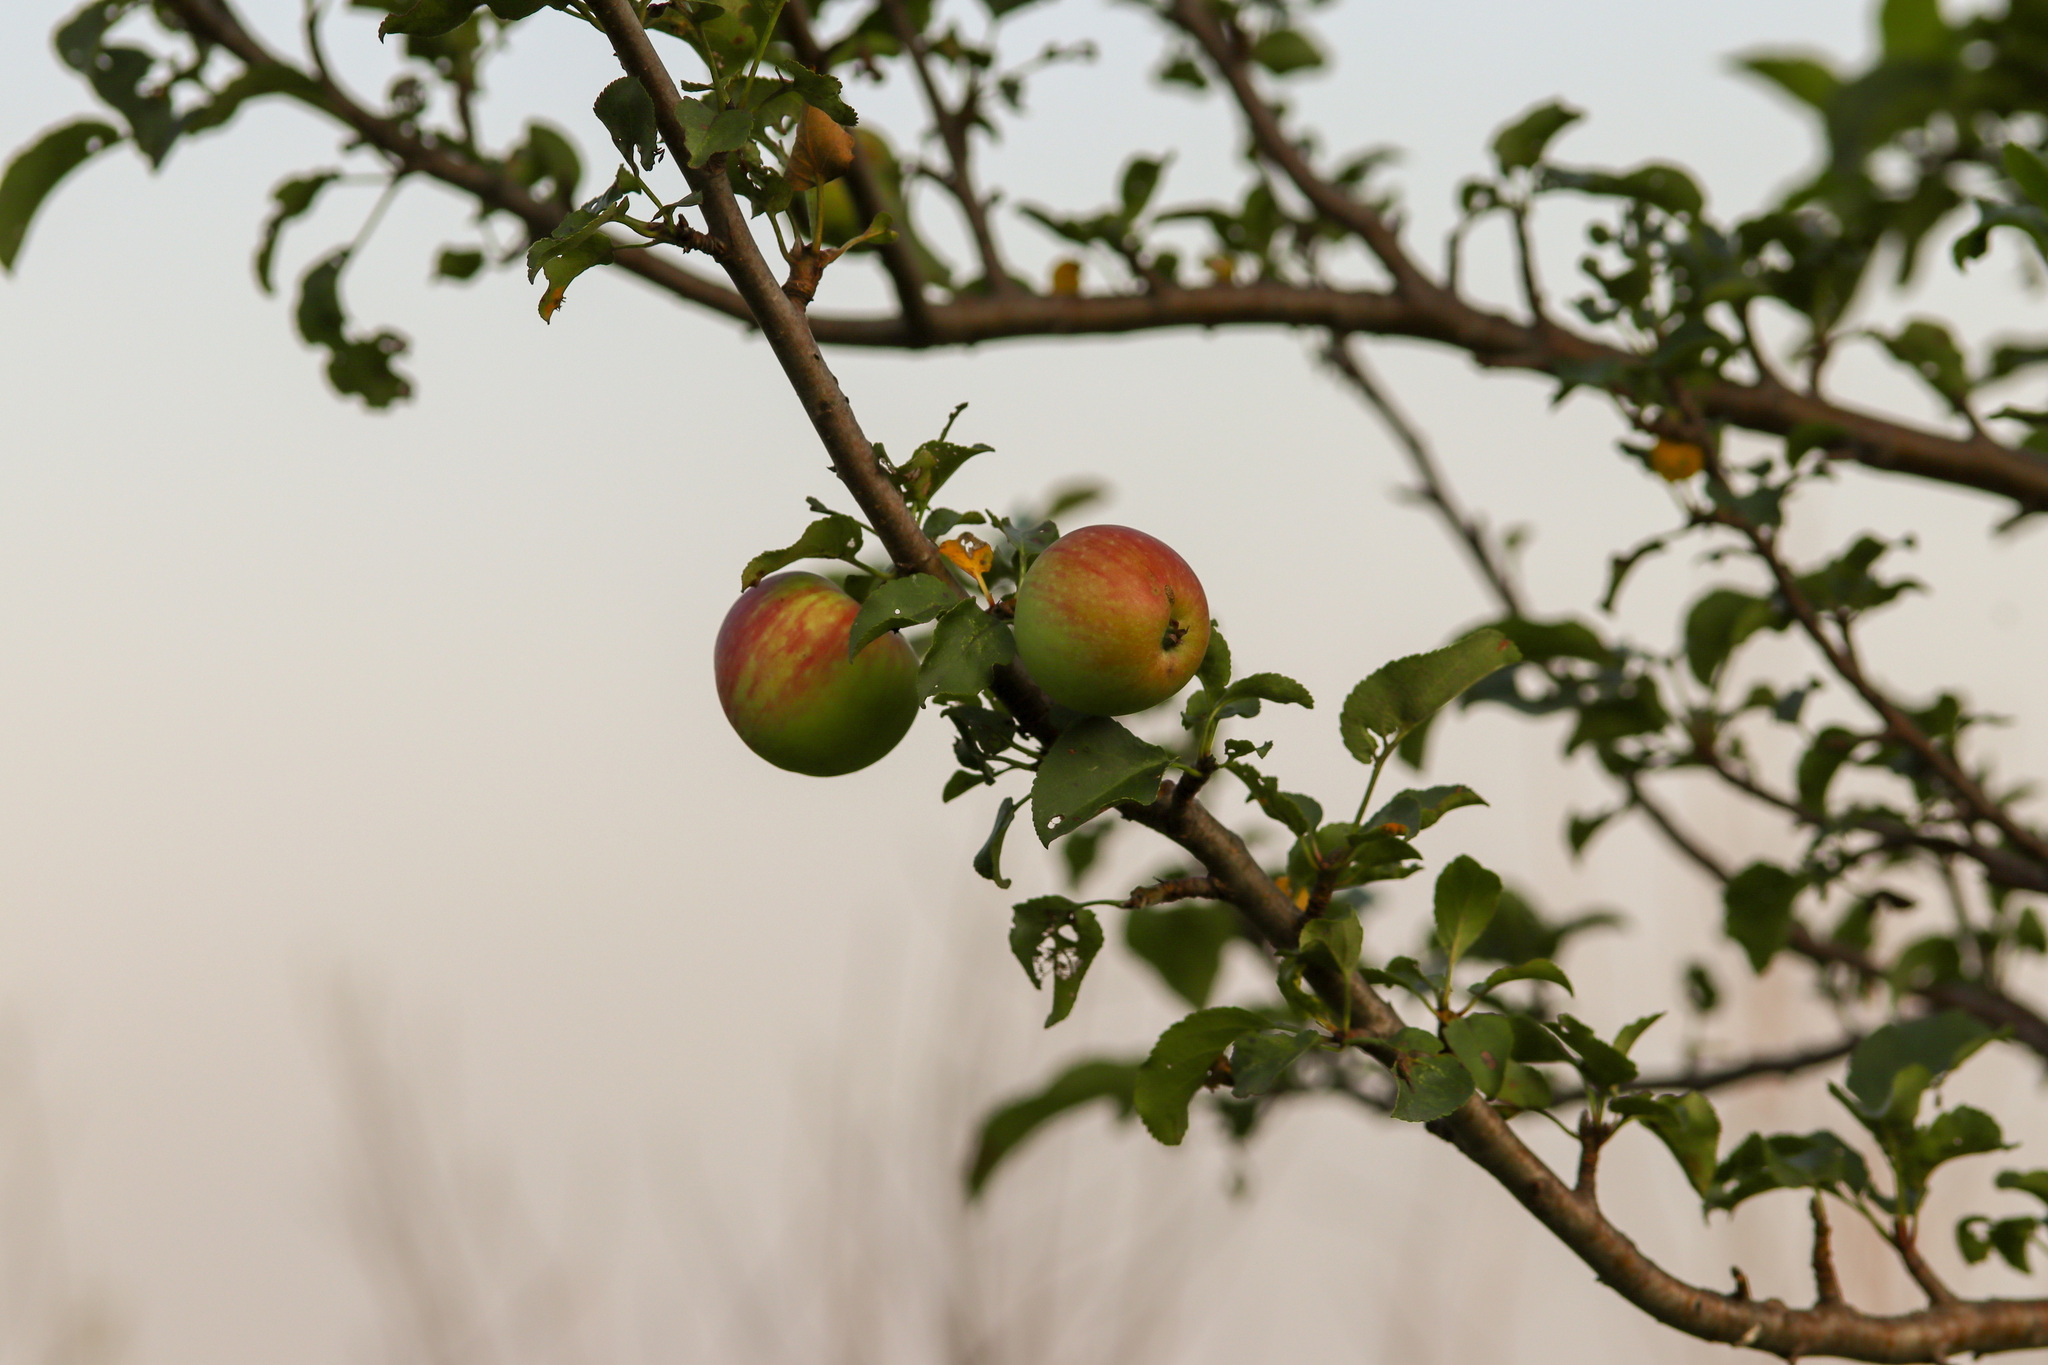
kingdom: Plantae
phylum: Tracheophyta
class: Magnoliopsida
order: Rosales
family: Rosaceae
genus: Malus
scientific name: Malus domestica
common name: Apple
